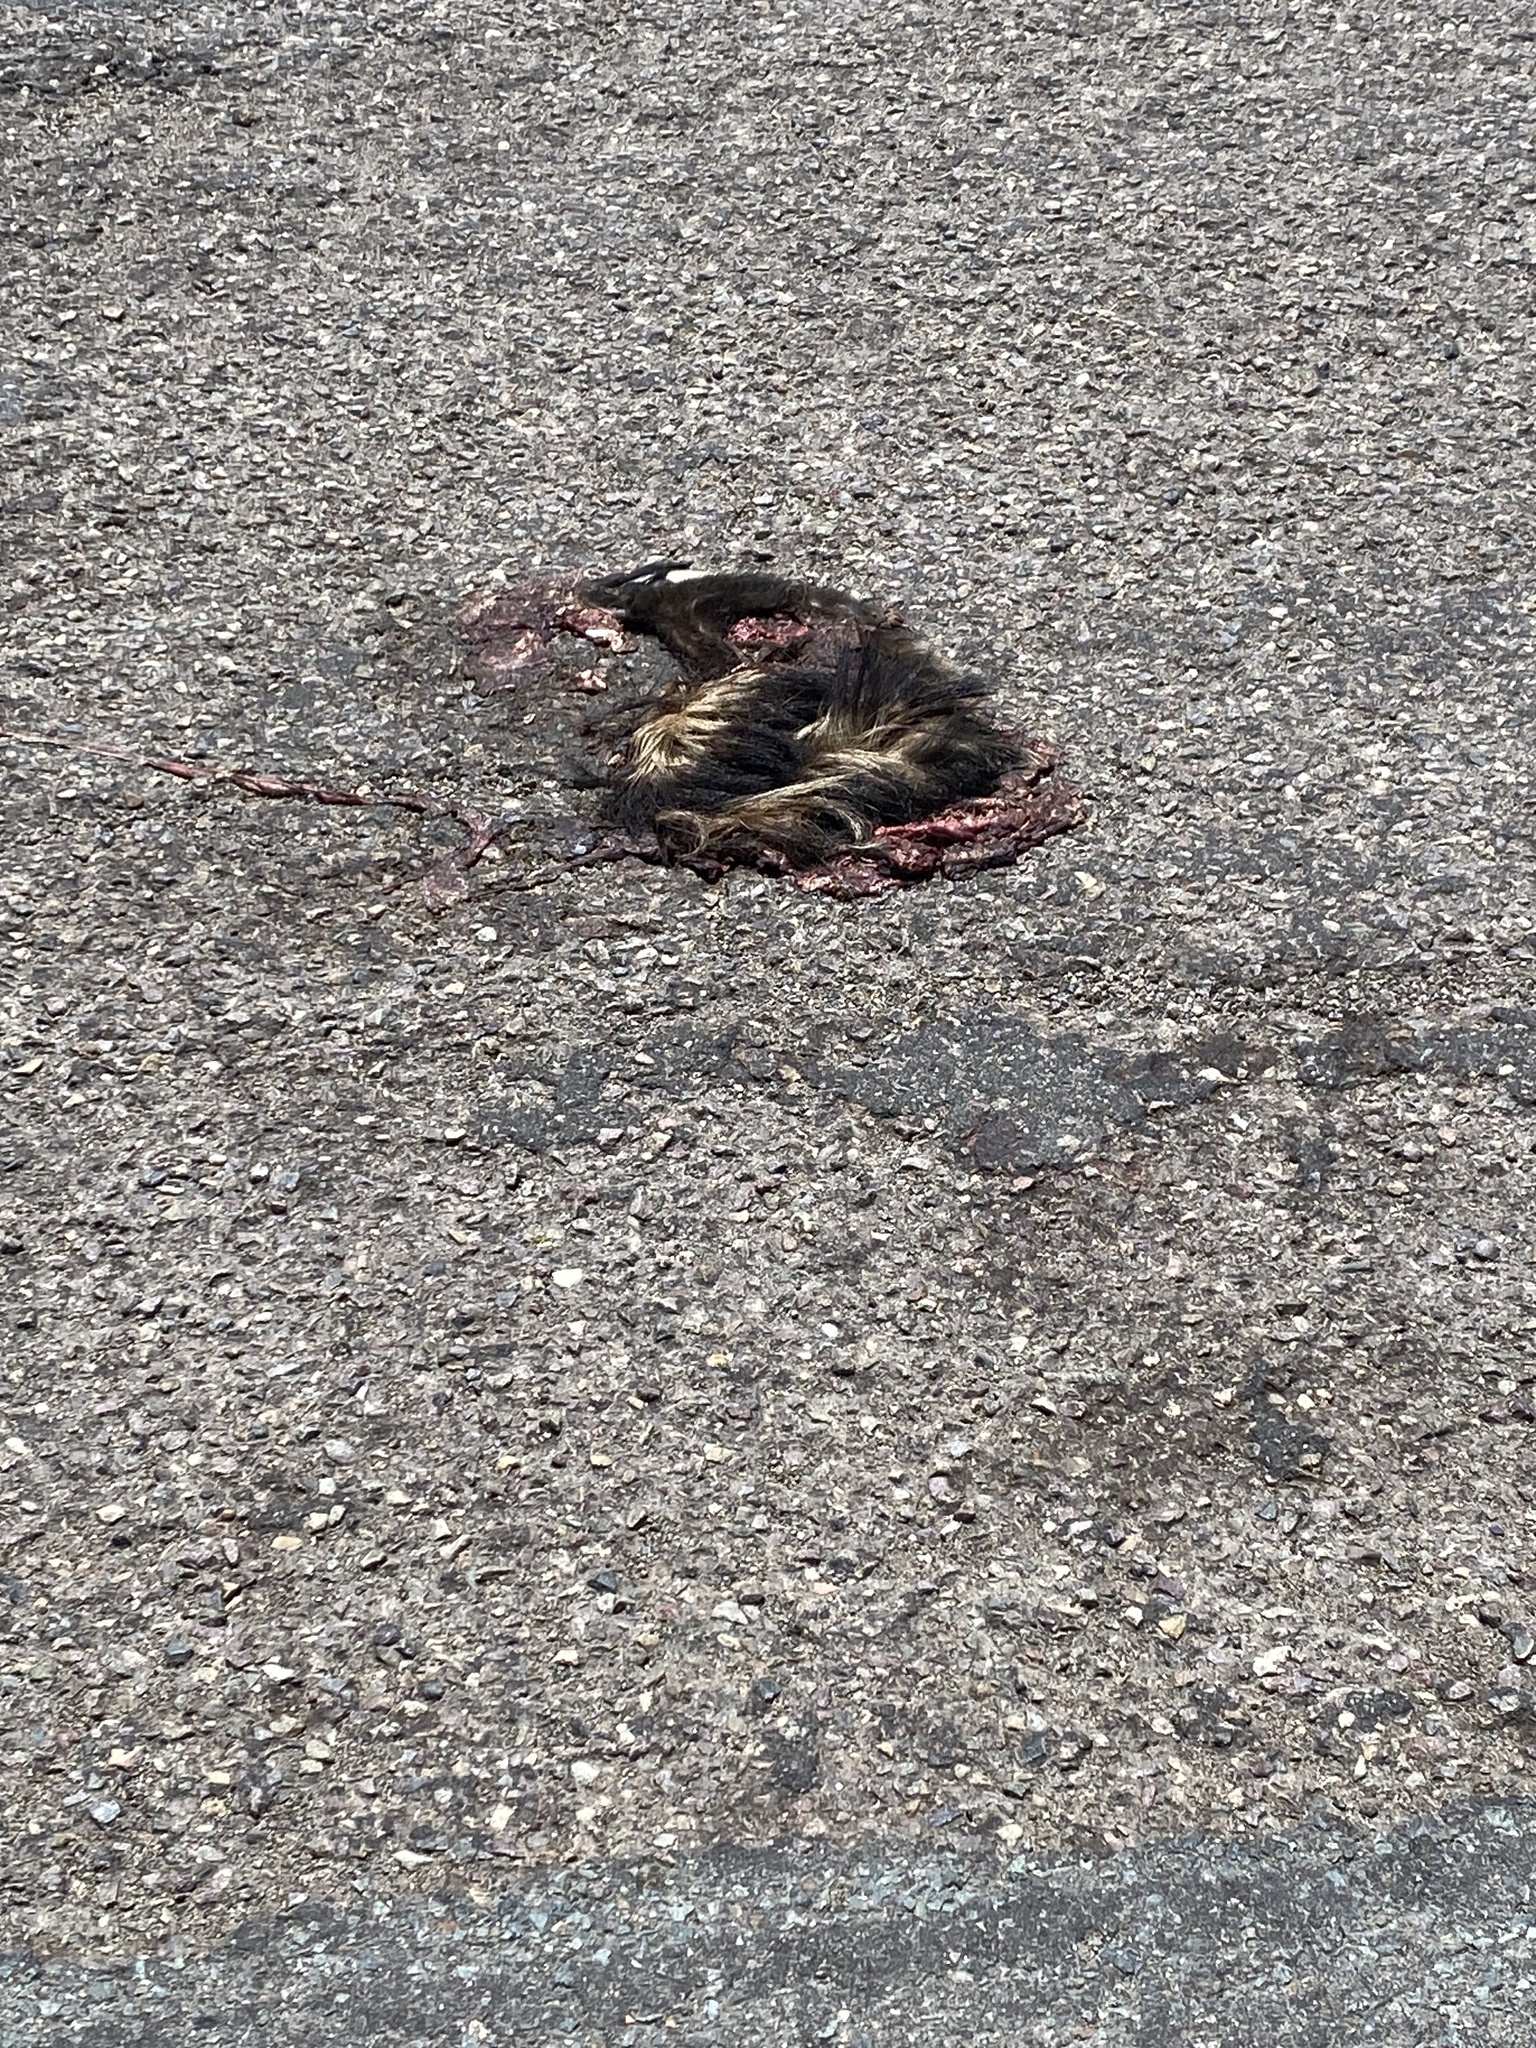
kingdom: Animalia
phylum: Chordata
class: Mammalia
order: Carnivora
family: Mephitidae
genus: Mephitis
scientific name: Mephitis mephitis
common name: Striped skunk
